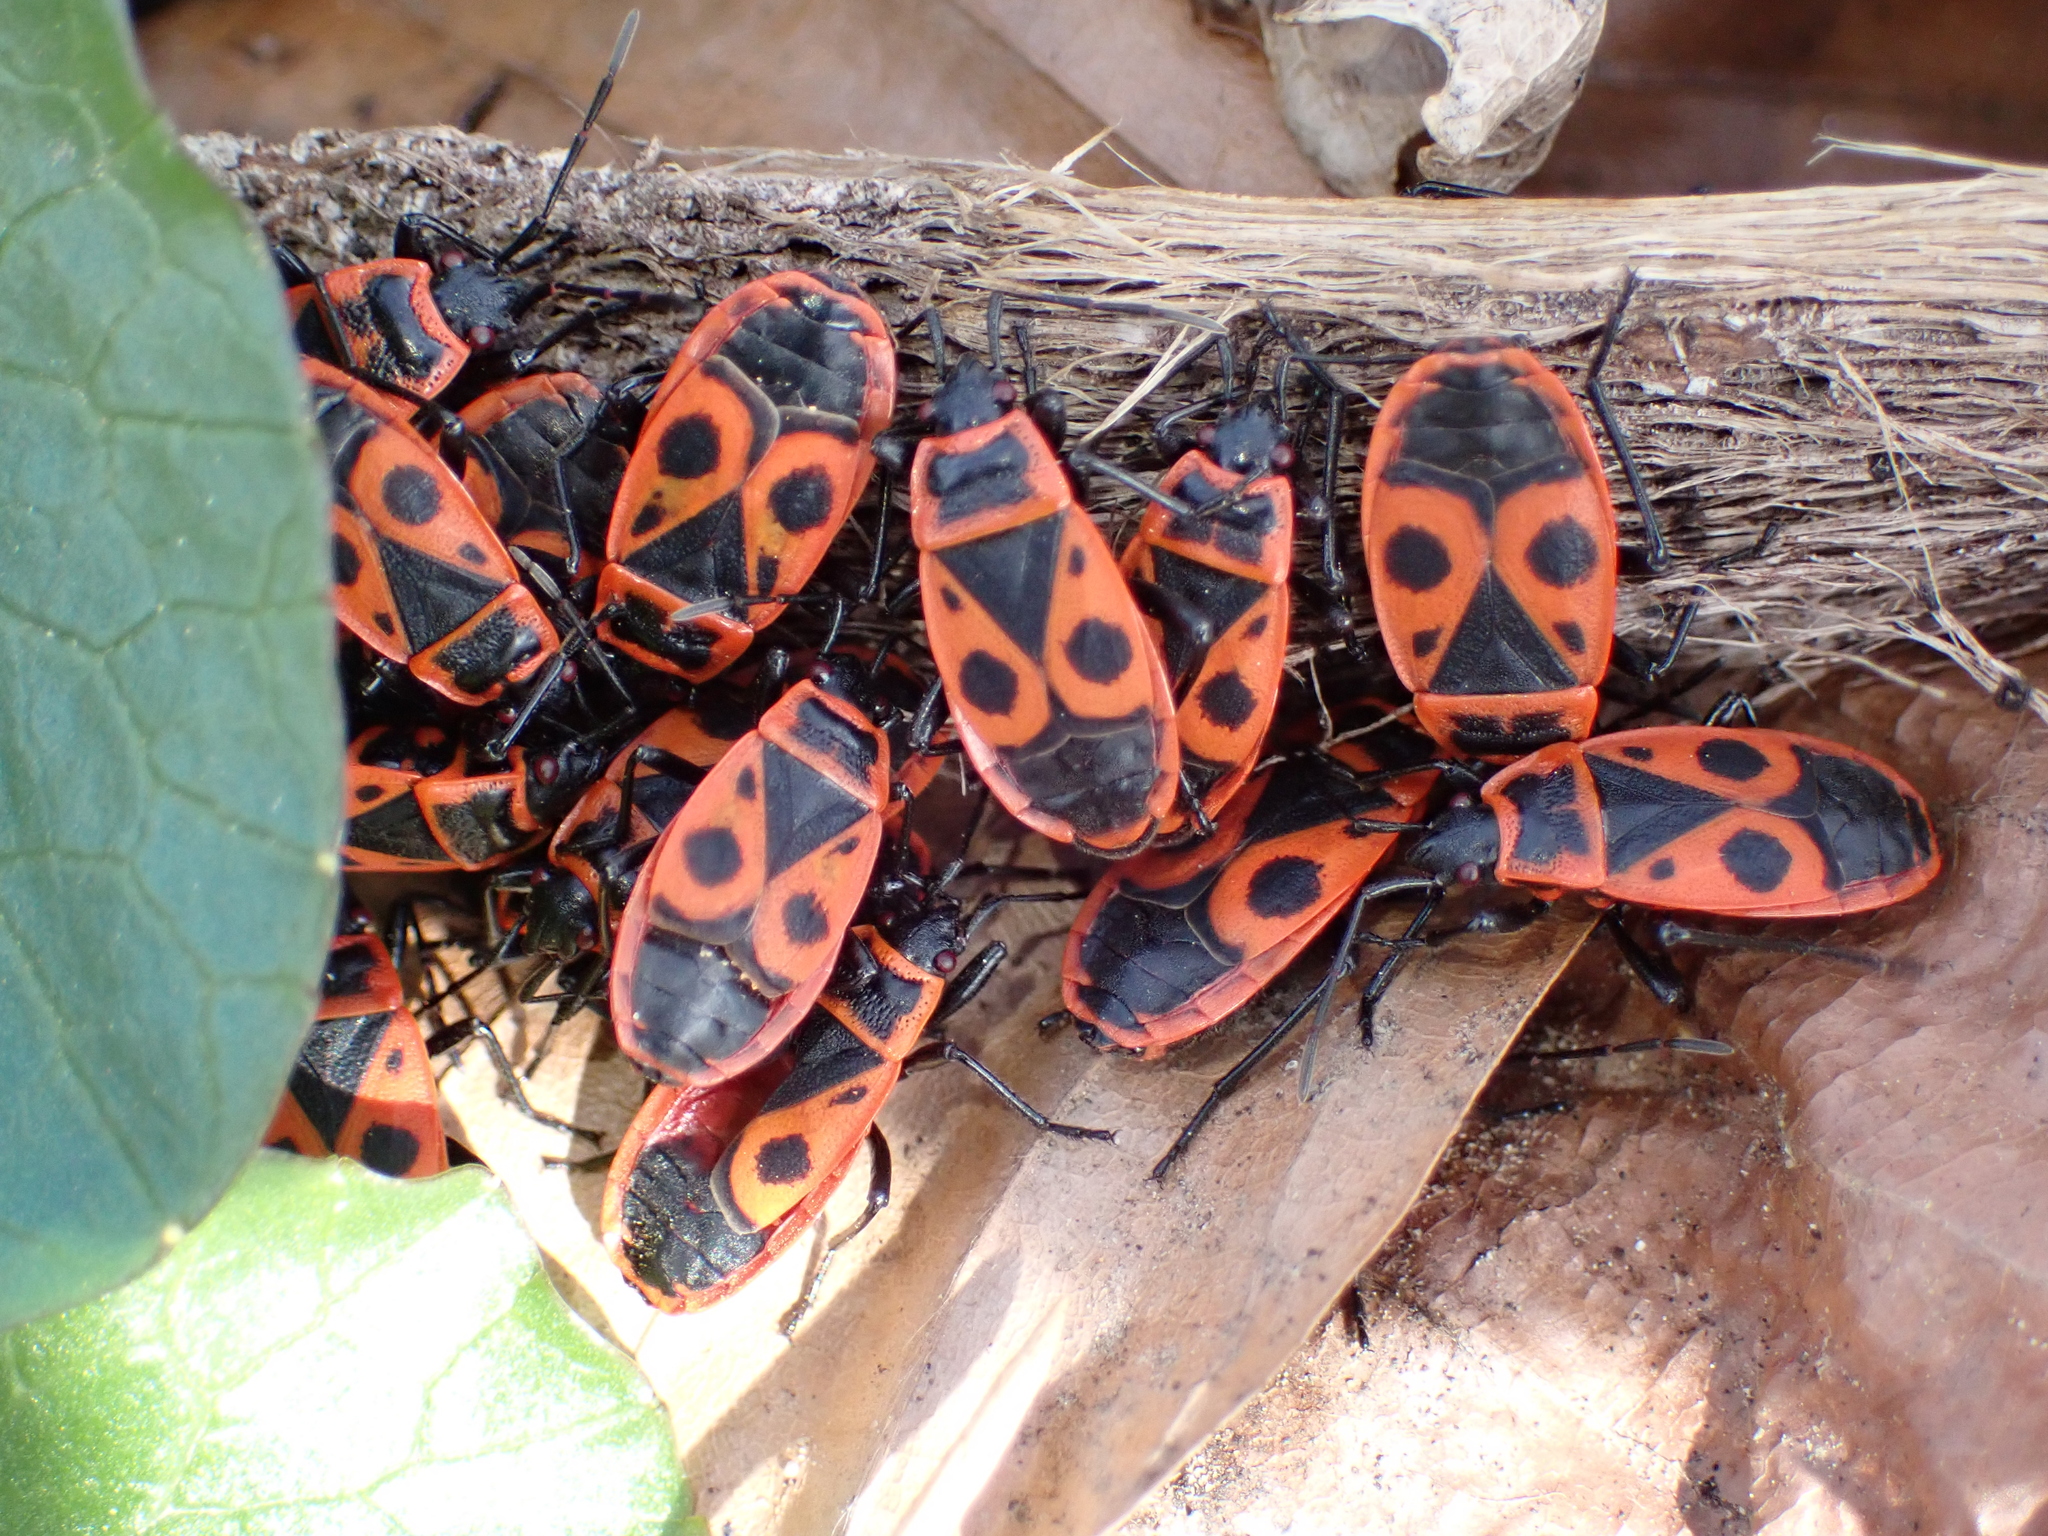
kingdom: Animalia
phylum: Arthropoda
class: Insecta
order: Hemiptera
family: Pyrrhocoridae
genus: Pyrrhocoris
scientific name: Pyrrhocoris apterus
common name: Firebug
